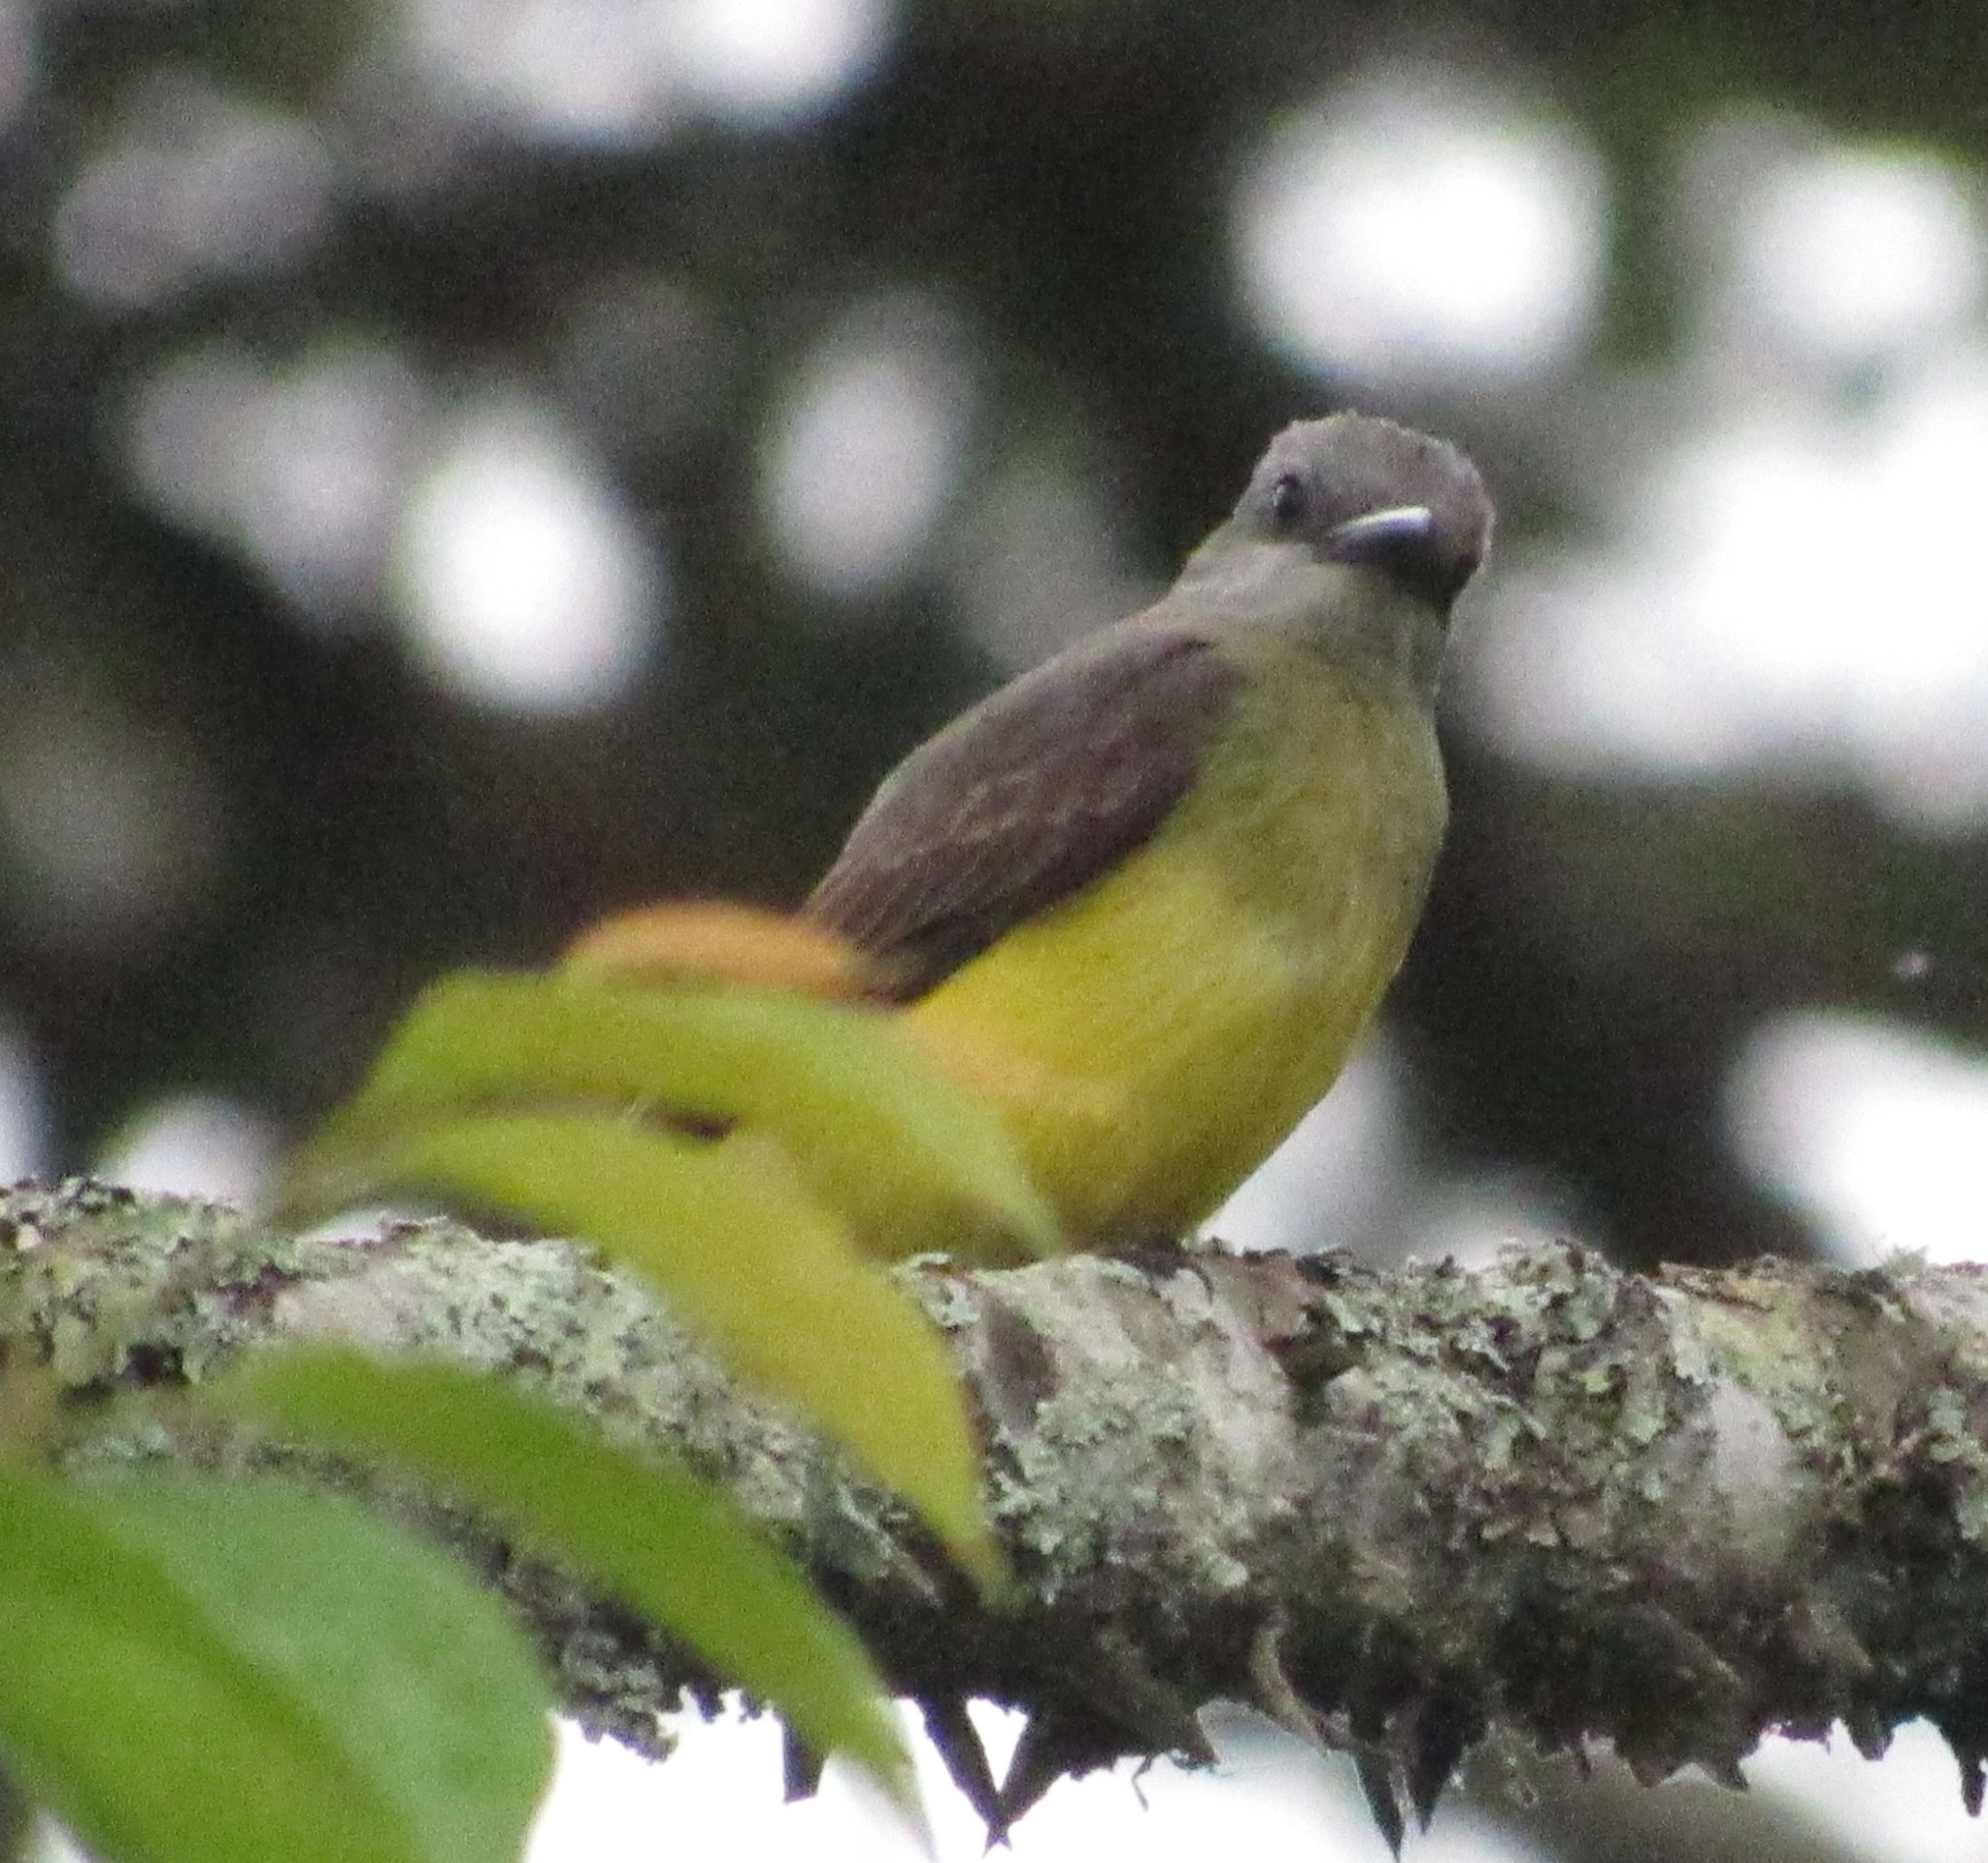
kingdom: Animalia
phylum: Chordata
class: Aves
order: Passeriformes
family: Tyrannidae
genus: Tyrannus
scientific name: Tyrannus melancholicus
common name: Tropical kingbird
